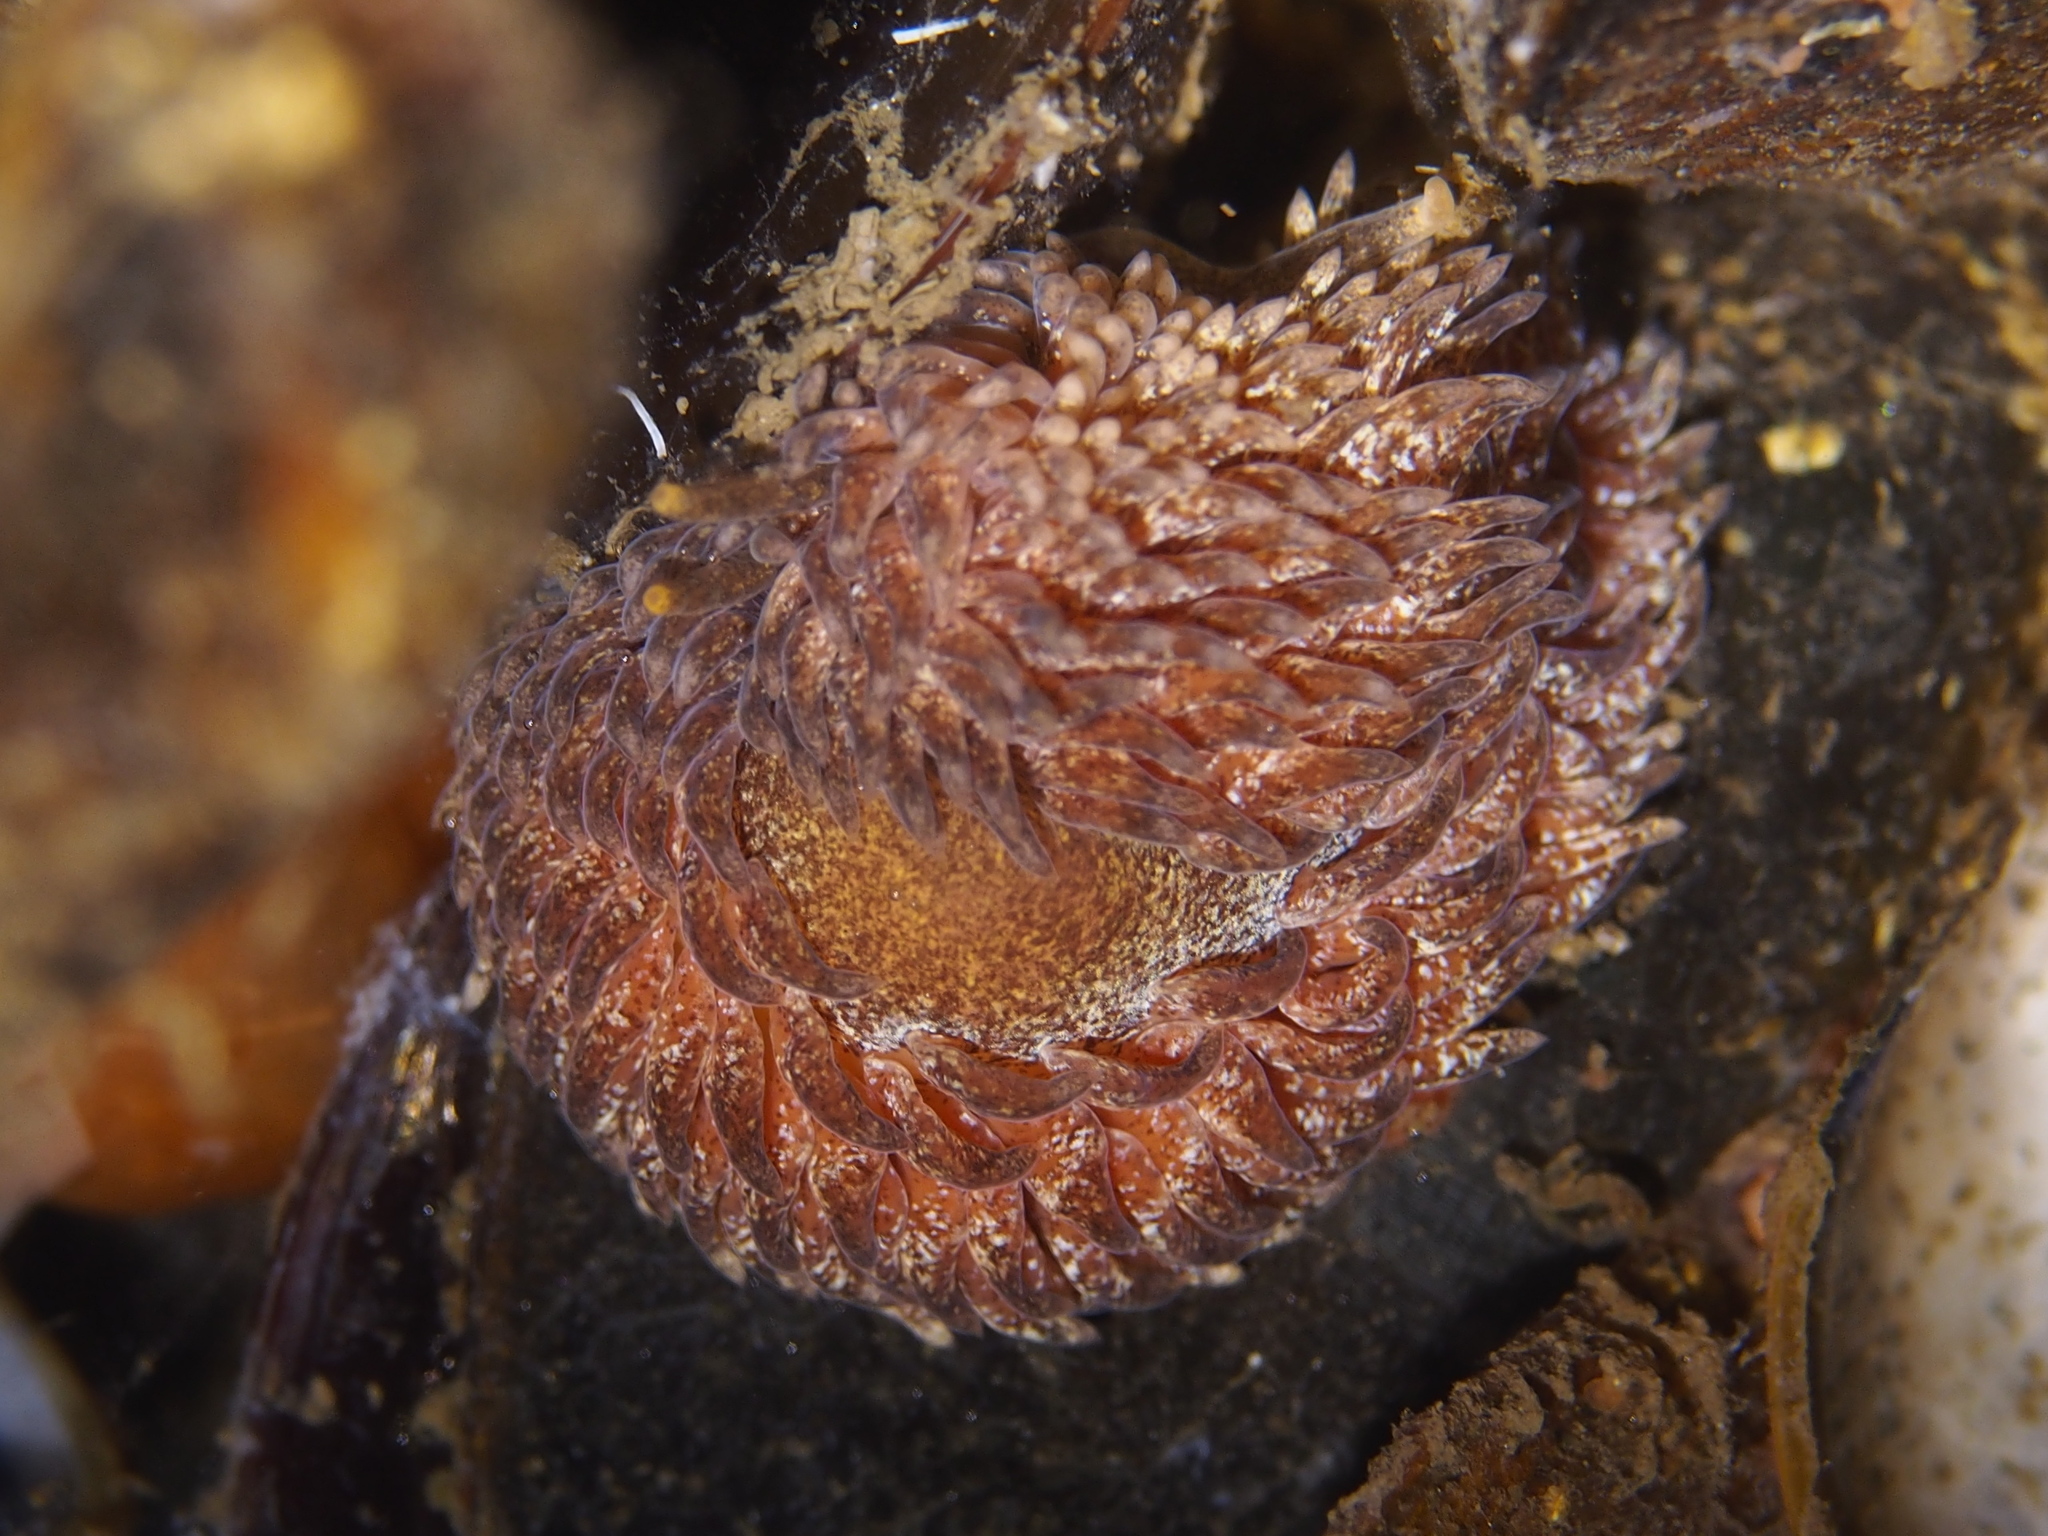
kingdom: Animalia
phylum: Mollusca
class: Gastropoda
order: Nudibranchia
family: Aeolidiidae
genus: Aeolidia
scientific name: Aeolidia papillosa
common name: Common grey sea slug
